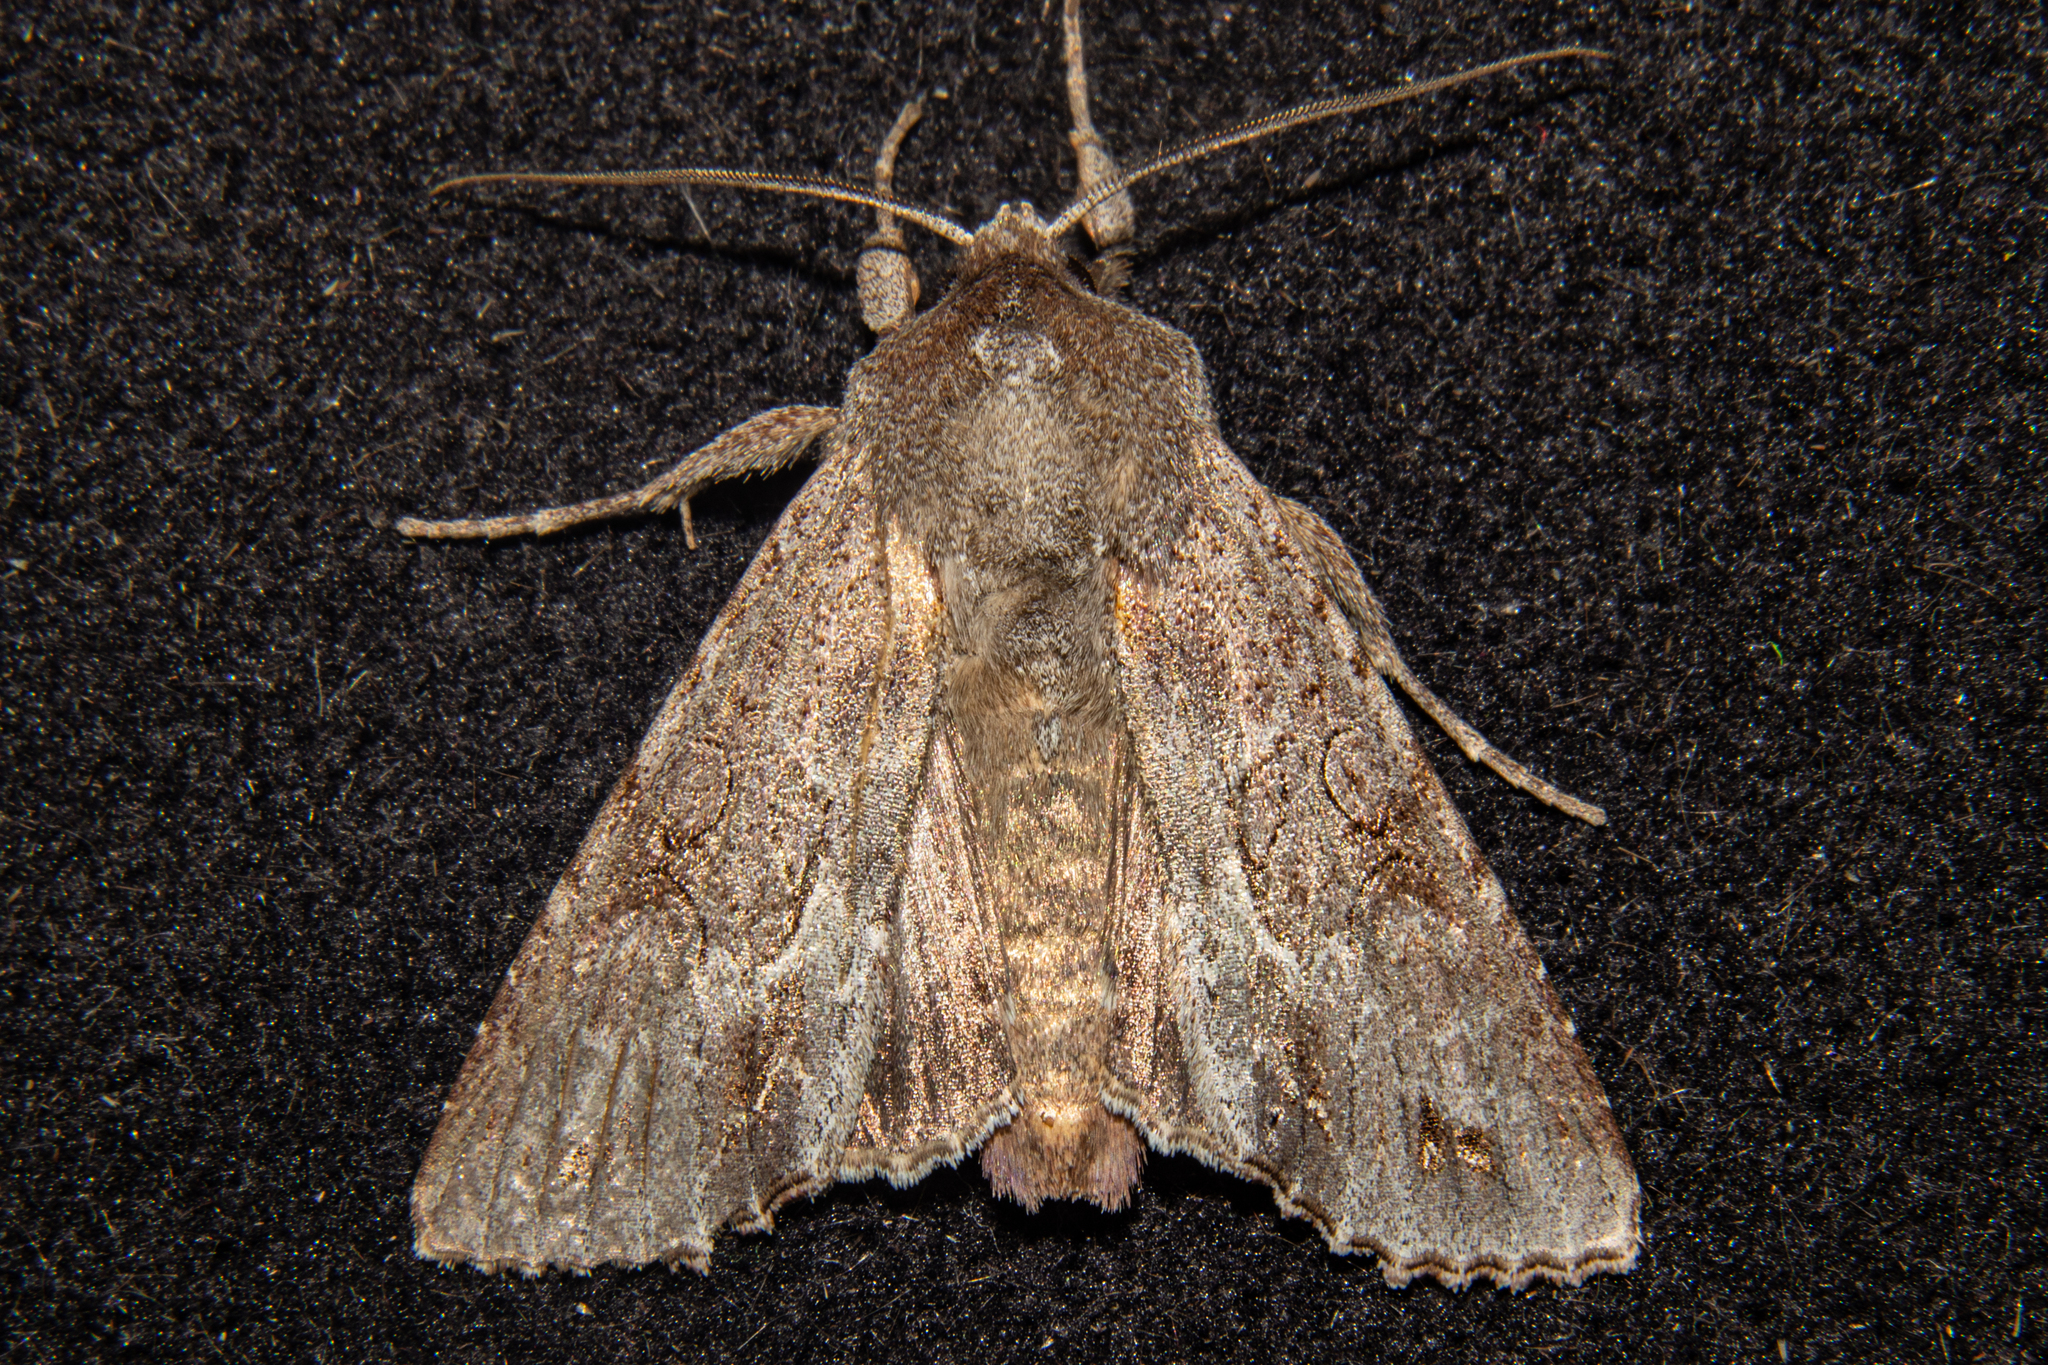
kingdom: Animalia
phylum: Arthropoda
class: Insecta
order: Lepidoptera
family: Noctuidae
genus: Ichneutica
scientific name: Ichneutica
